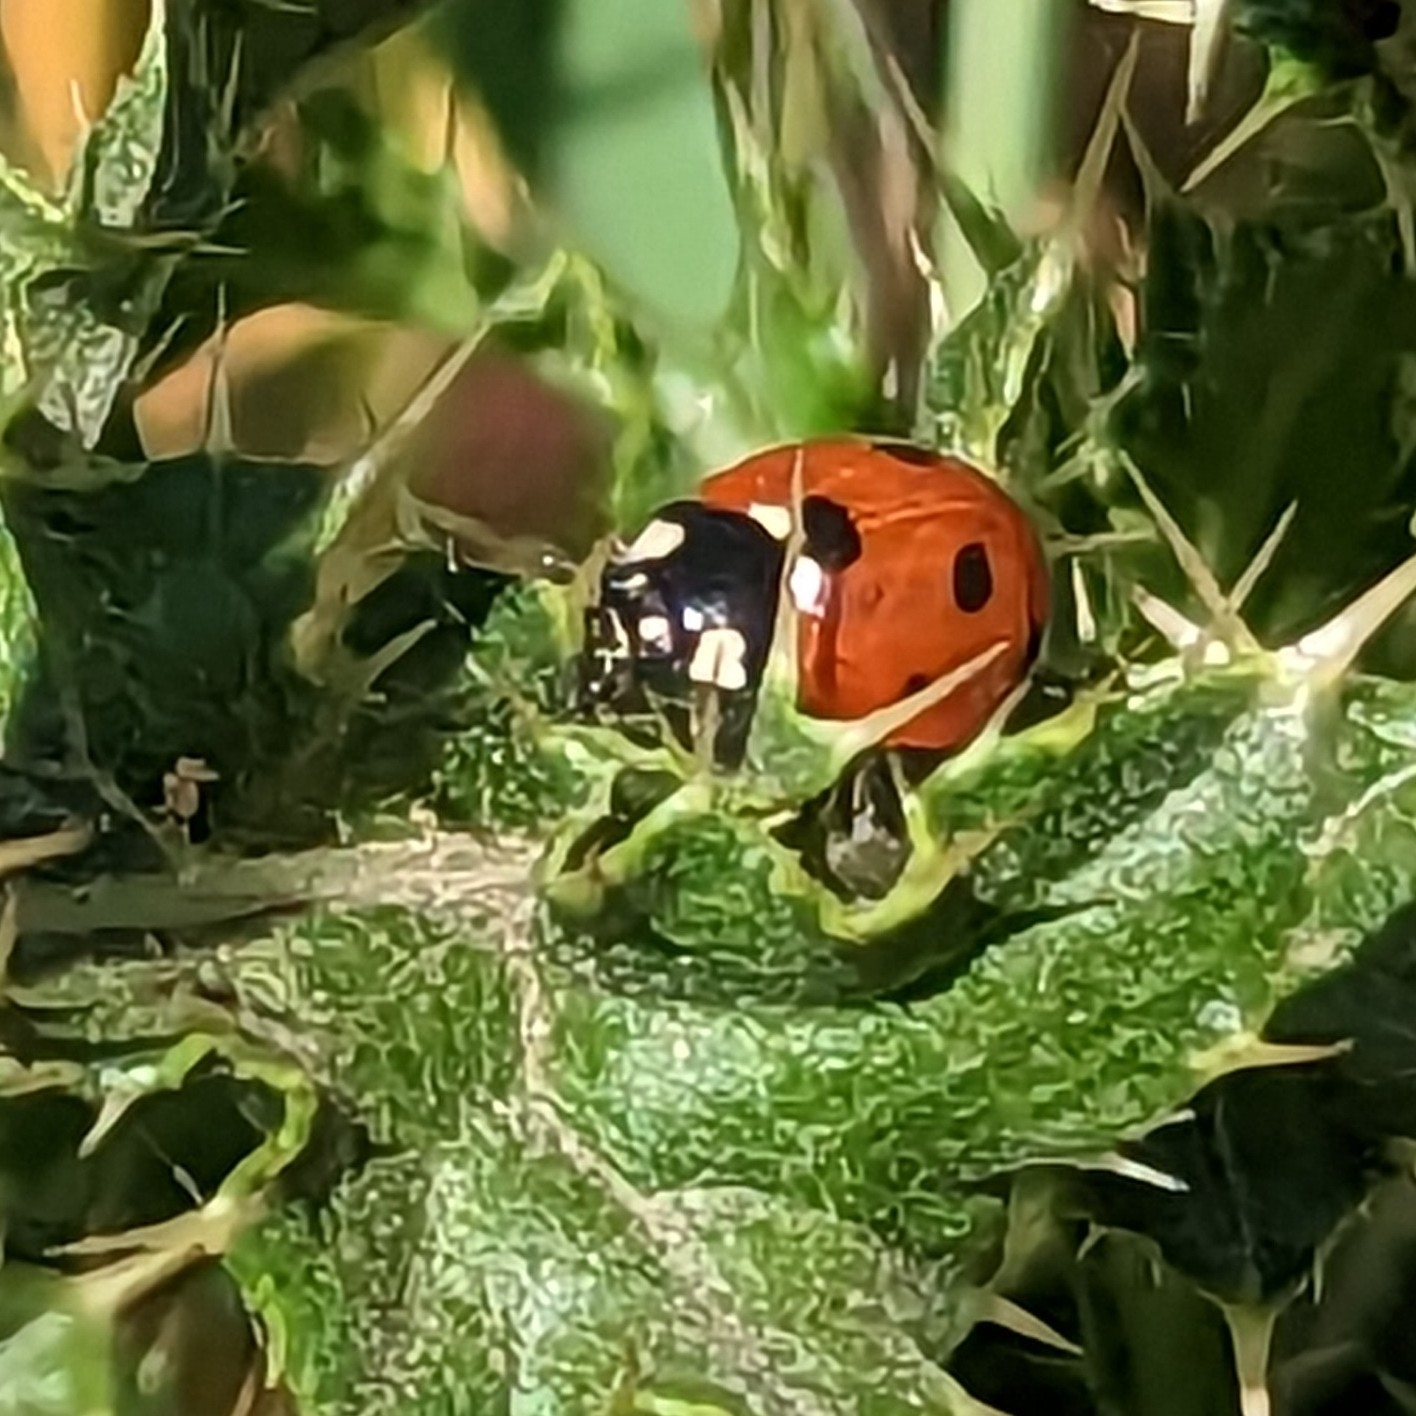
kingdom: Animalia
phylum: Arthropoda
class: Insecta
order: Coleoptera
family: Coccinellidae
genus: Coccinella
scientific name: Coccinella septempunctata
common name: Sevenspotted lady beetle
